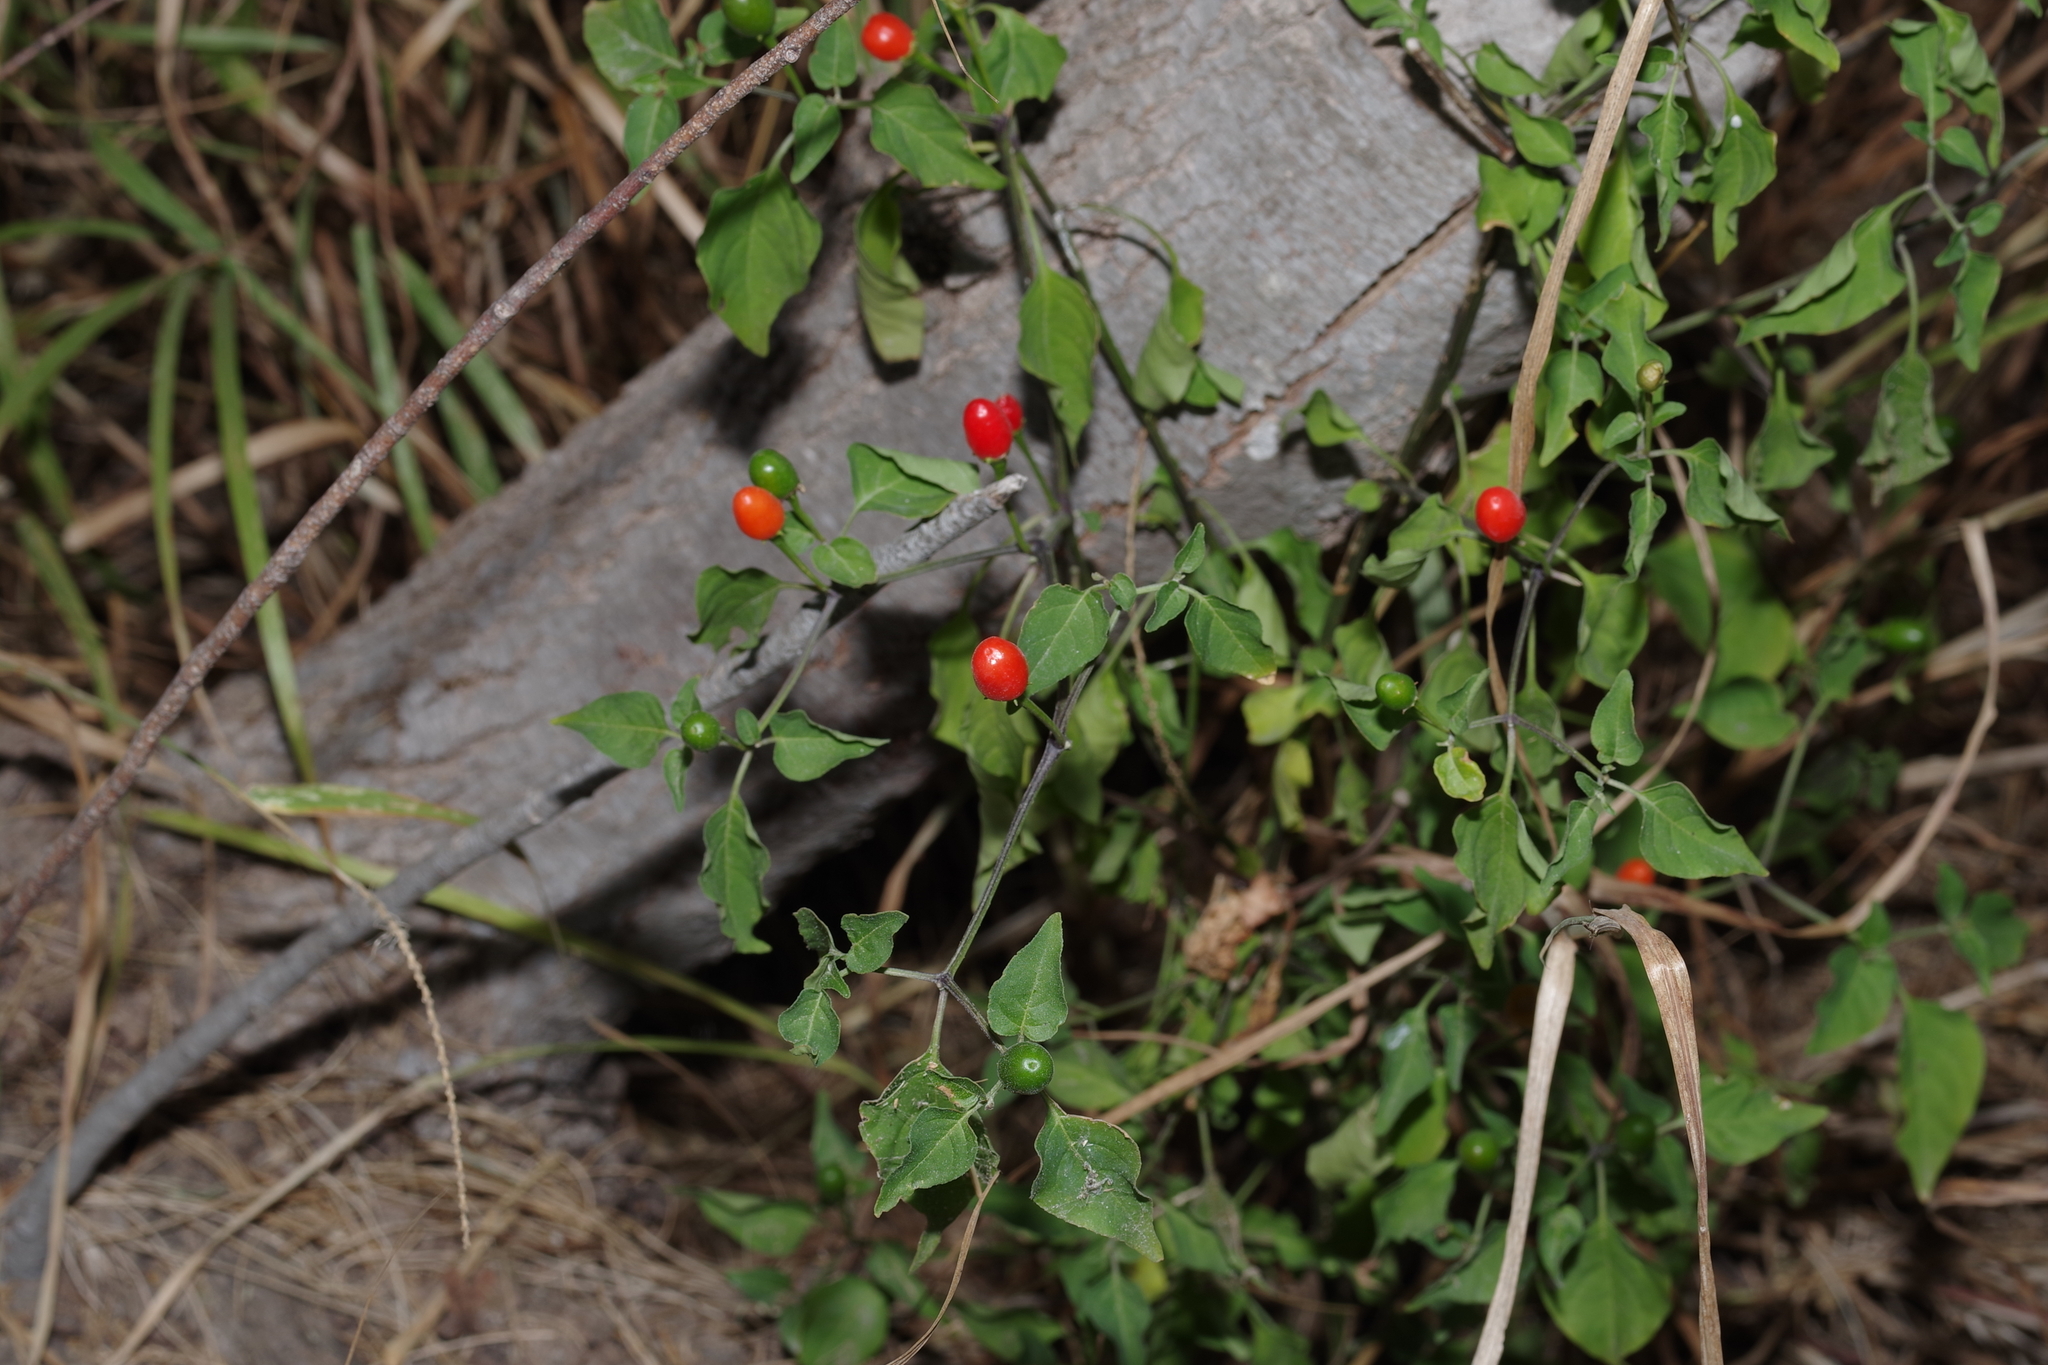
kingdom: Plantae
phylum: Tracheophyta
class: Magnoliopsida
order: Solanales
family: Solanaceae
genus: Capsicum
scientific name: Capsicum annuum
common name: Sweet pepper
